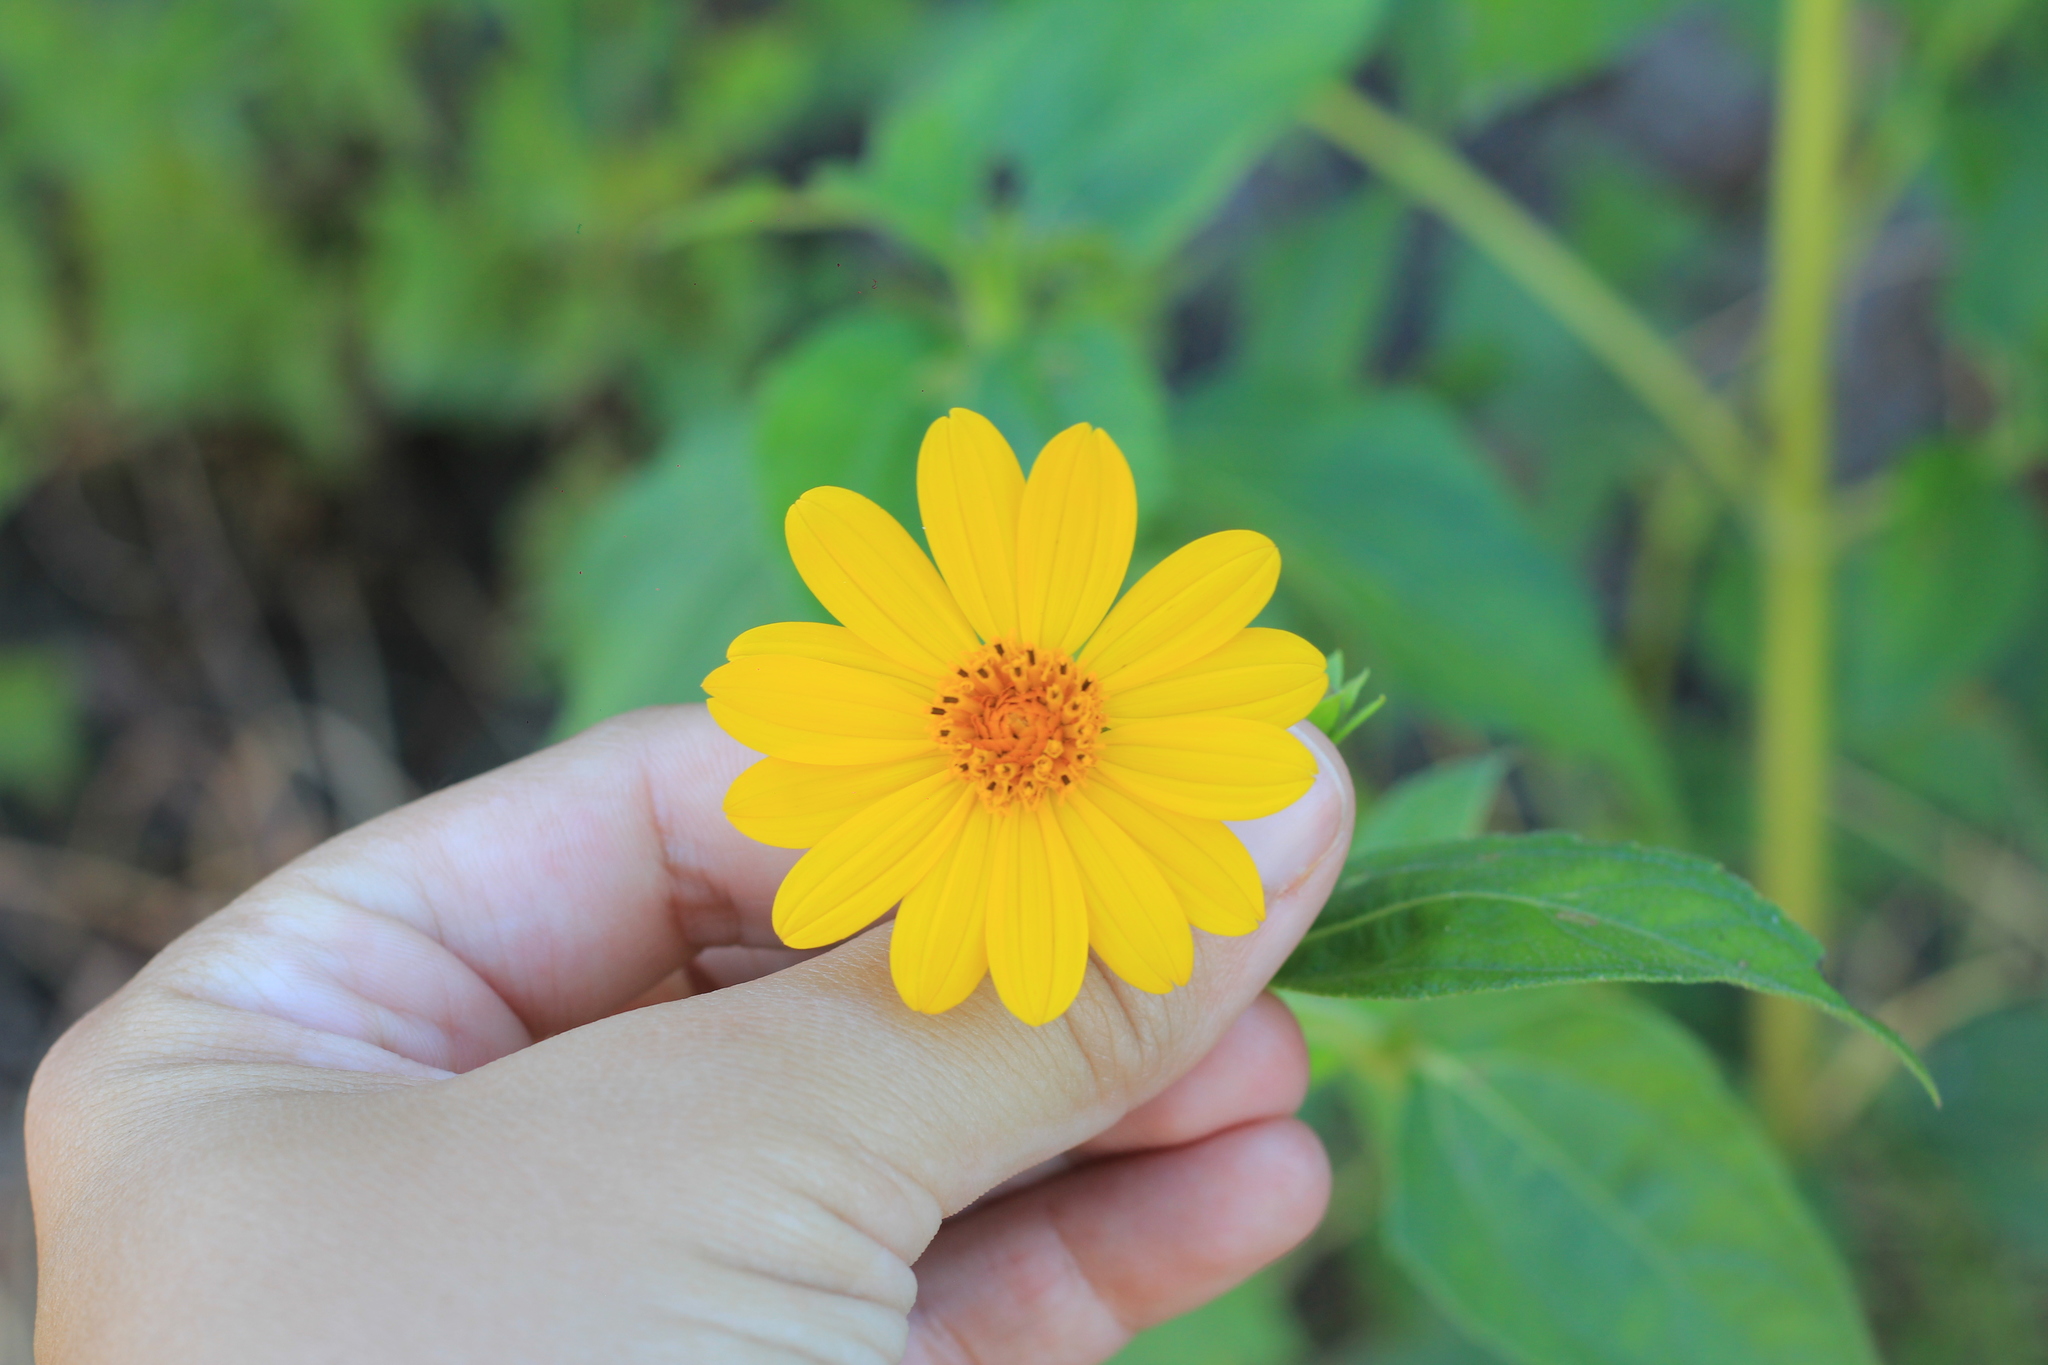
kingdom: Plantae
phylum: Tracheophyta
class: Magnoliopsida
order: Asterales
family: Asteraceae
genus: Wedelia
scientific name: Wedelia silphioides
